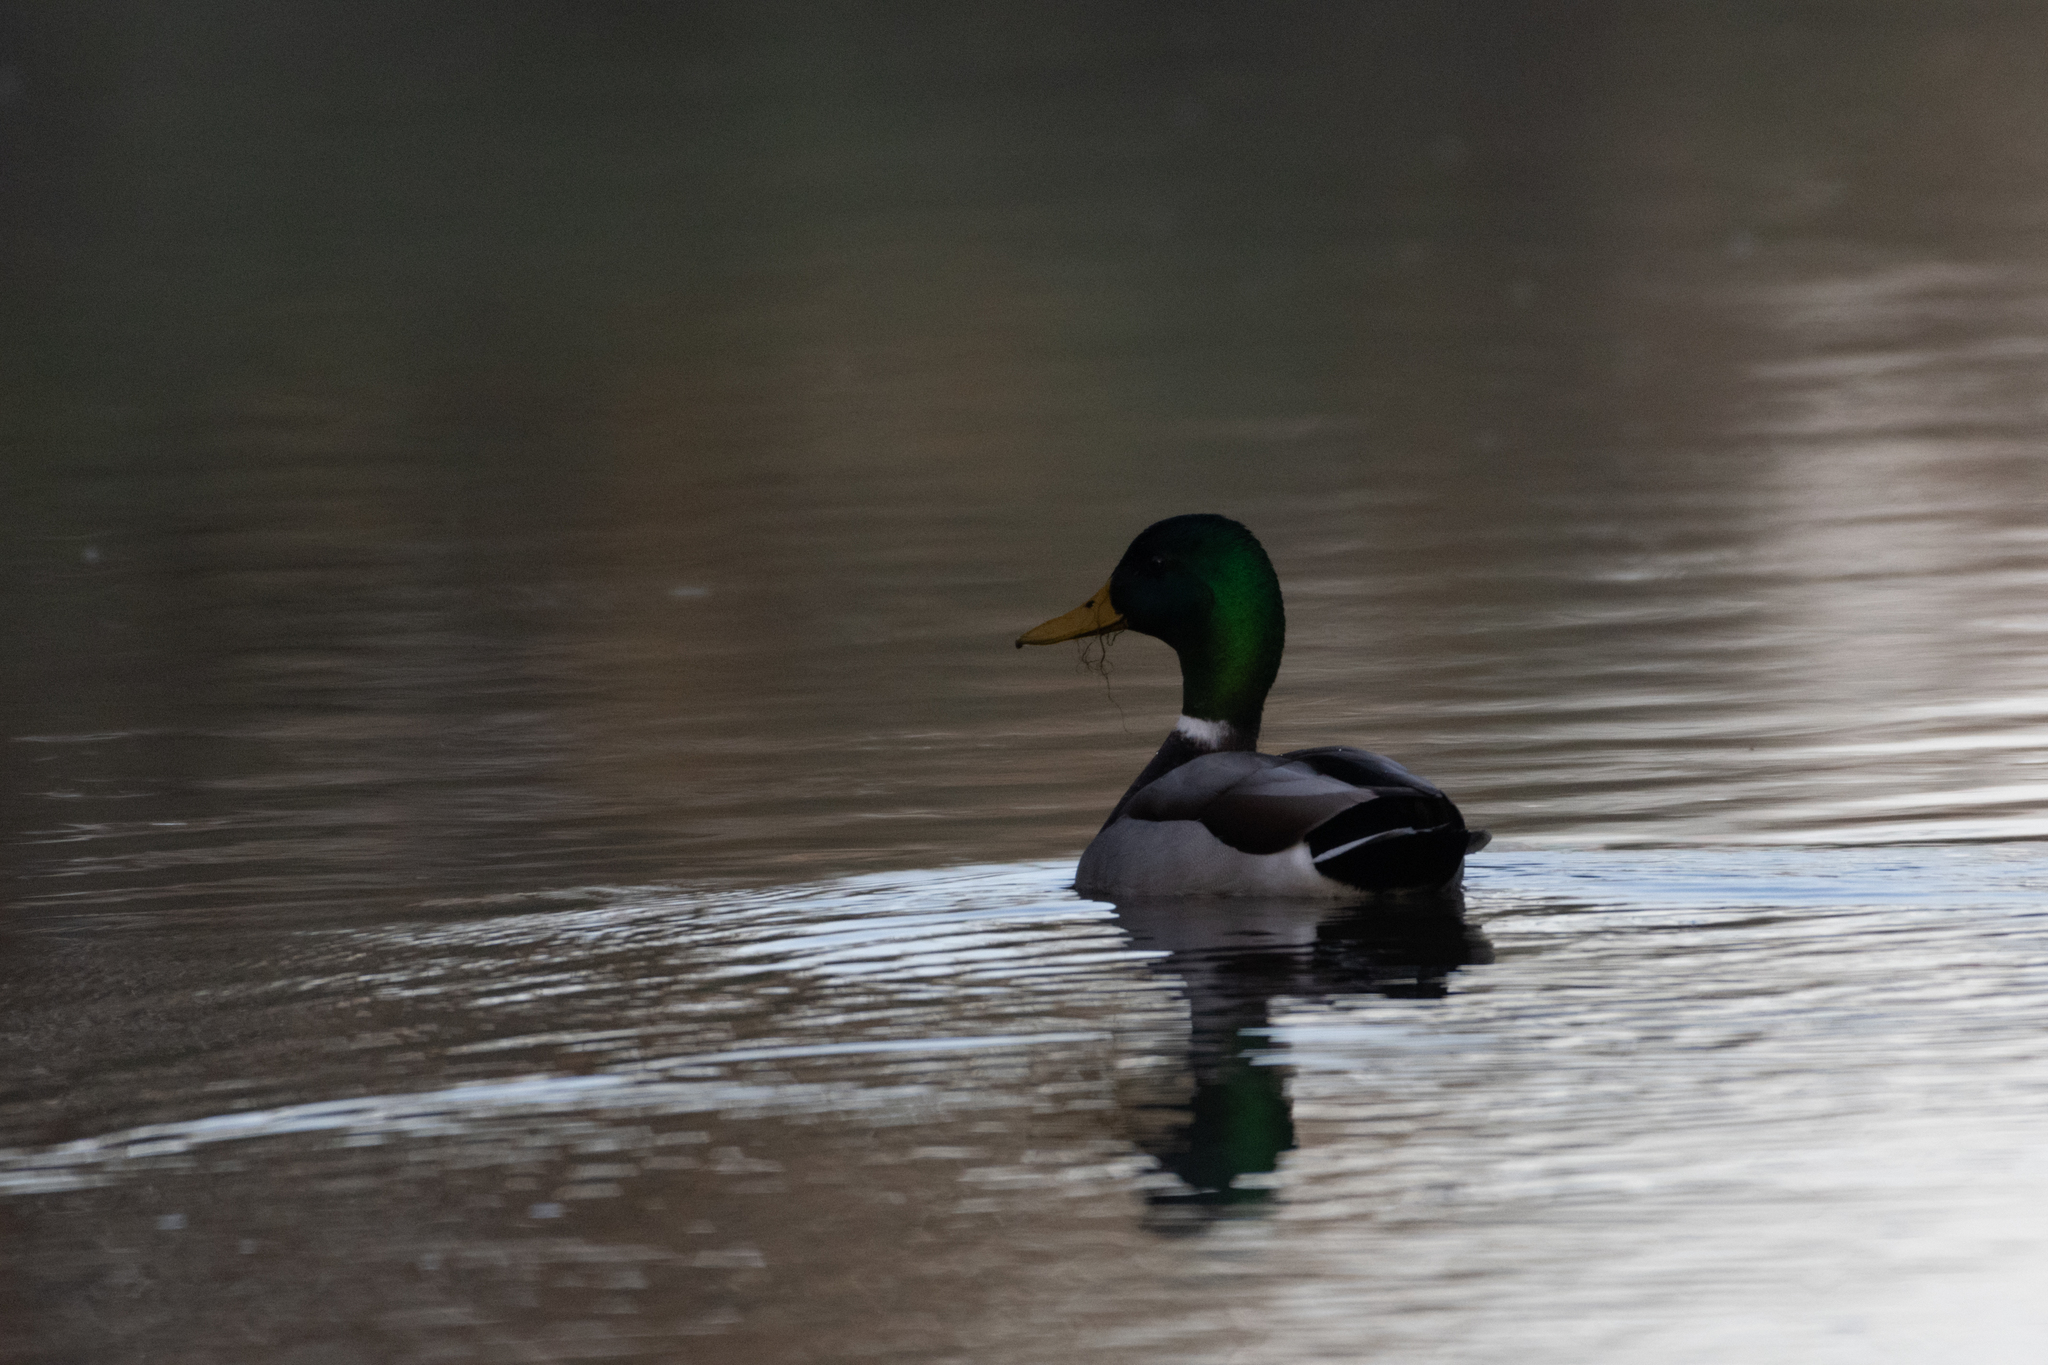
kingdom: Animalia
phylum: Chordata
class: Aves
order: Anseriformes
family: Anatidae
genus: Anas
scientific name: Anas platyrhynchos
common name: Mallard
